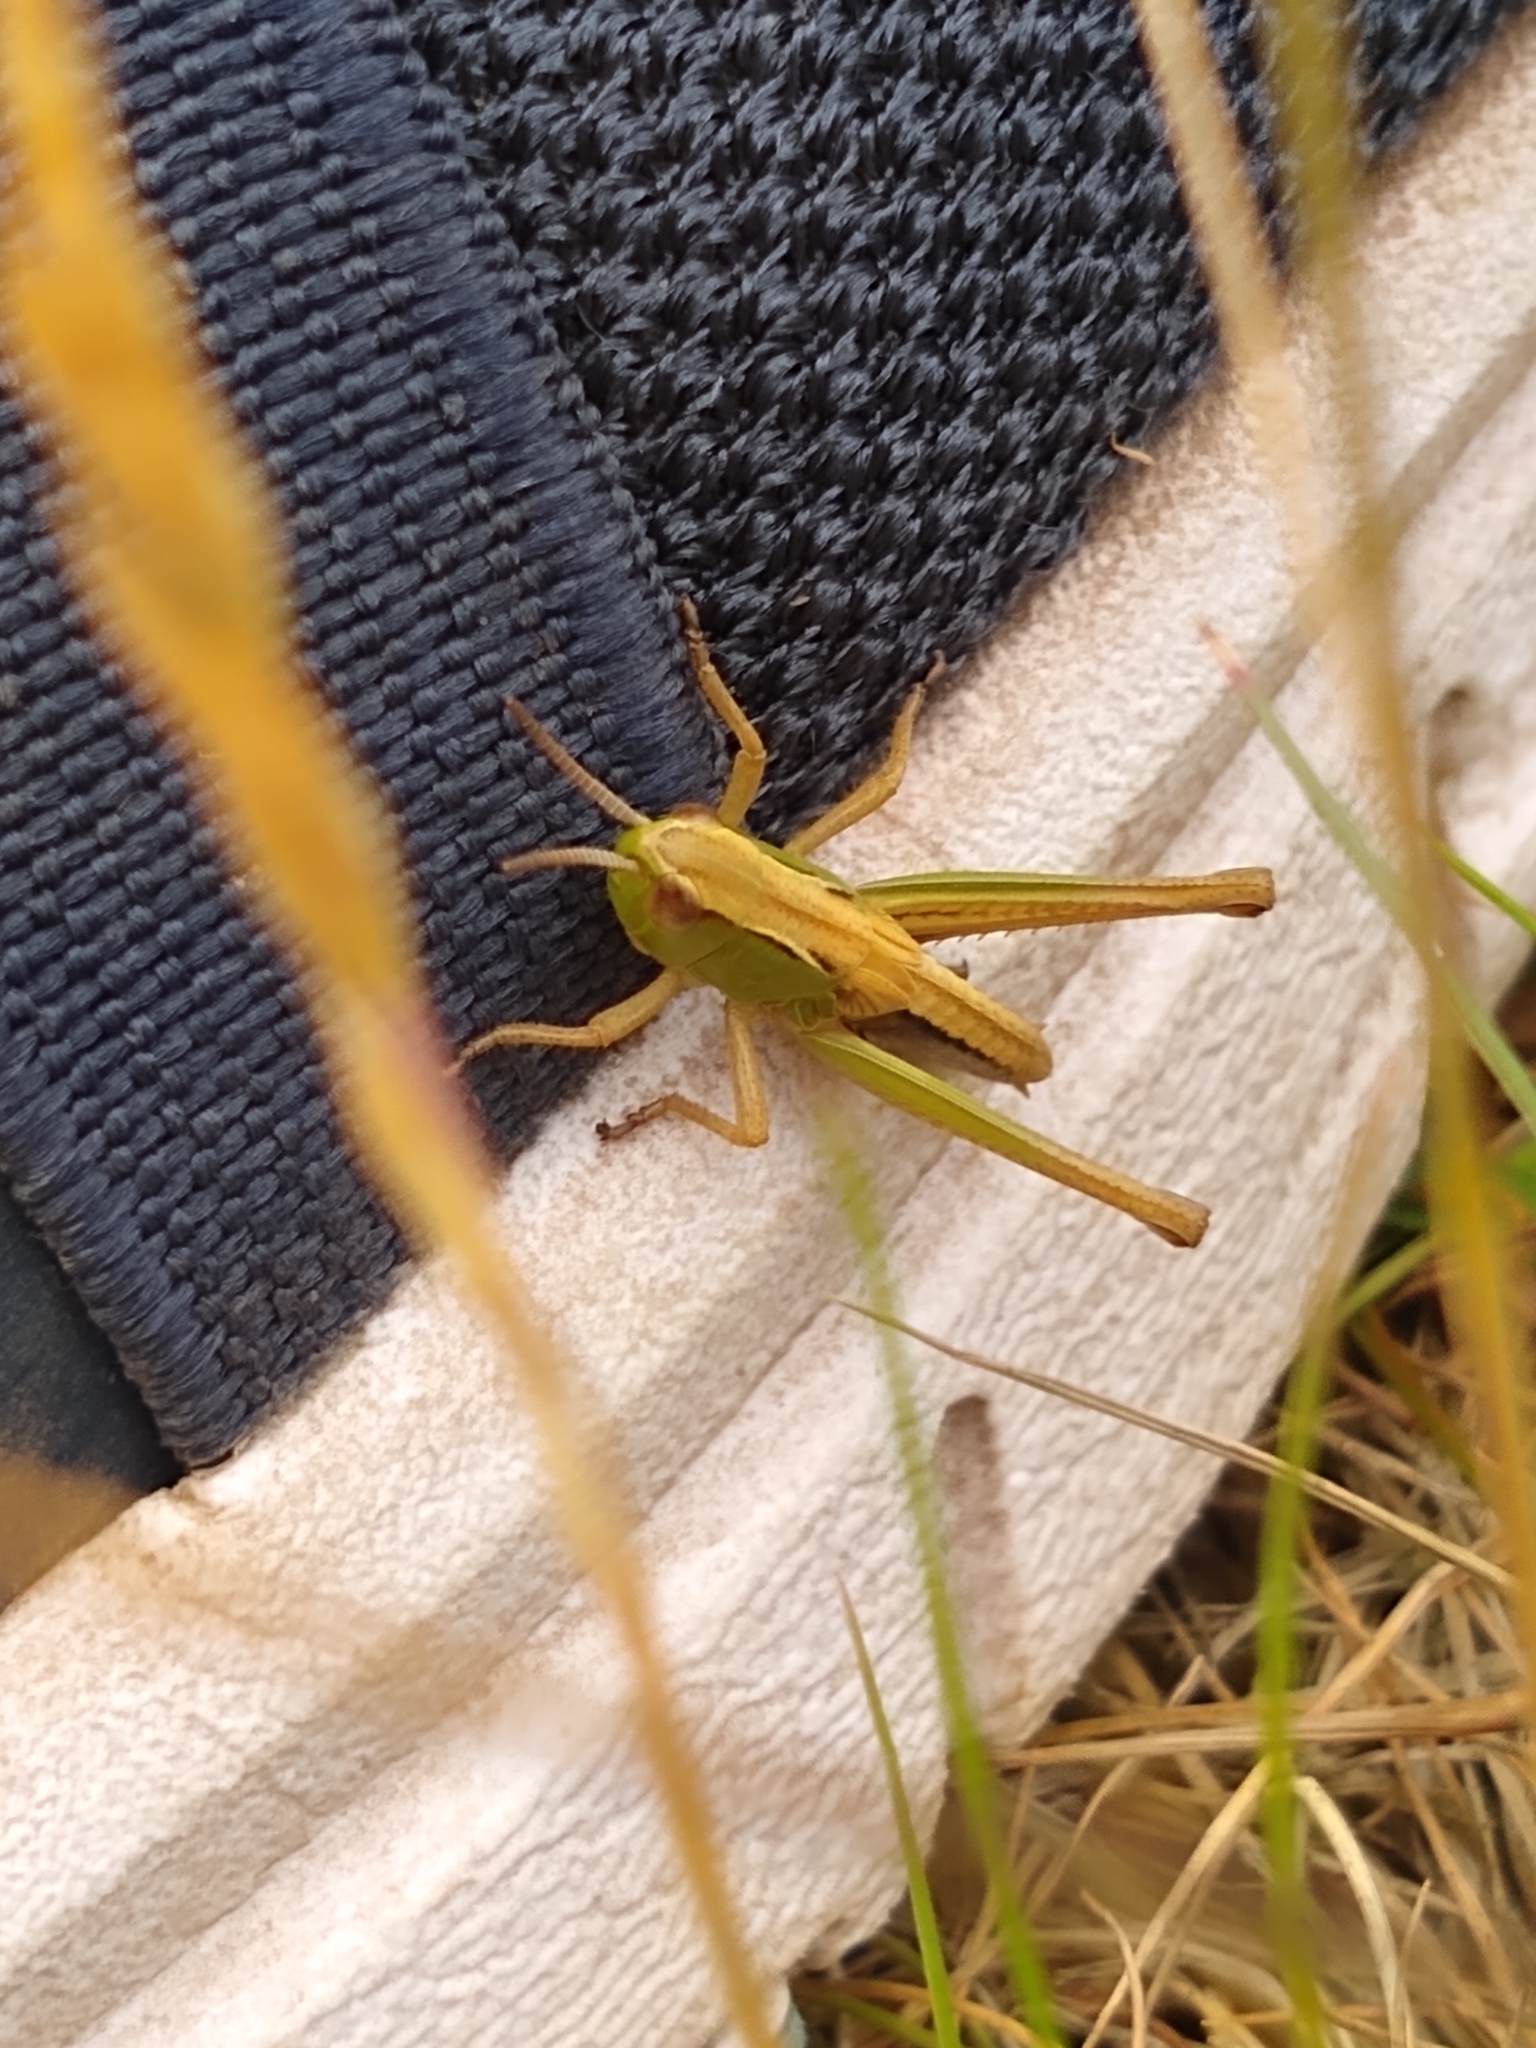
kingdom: Animalia
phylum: Arthropoda
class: Insecta
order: Orthoptera
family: Acrididae
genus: Pseudochorthippus
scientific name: Pseudochorthippus parallelus
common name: Meadow grasshopper
